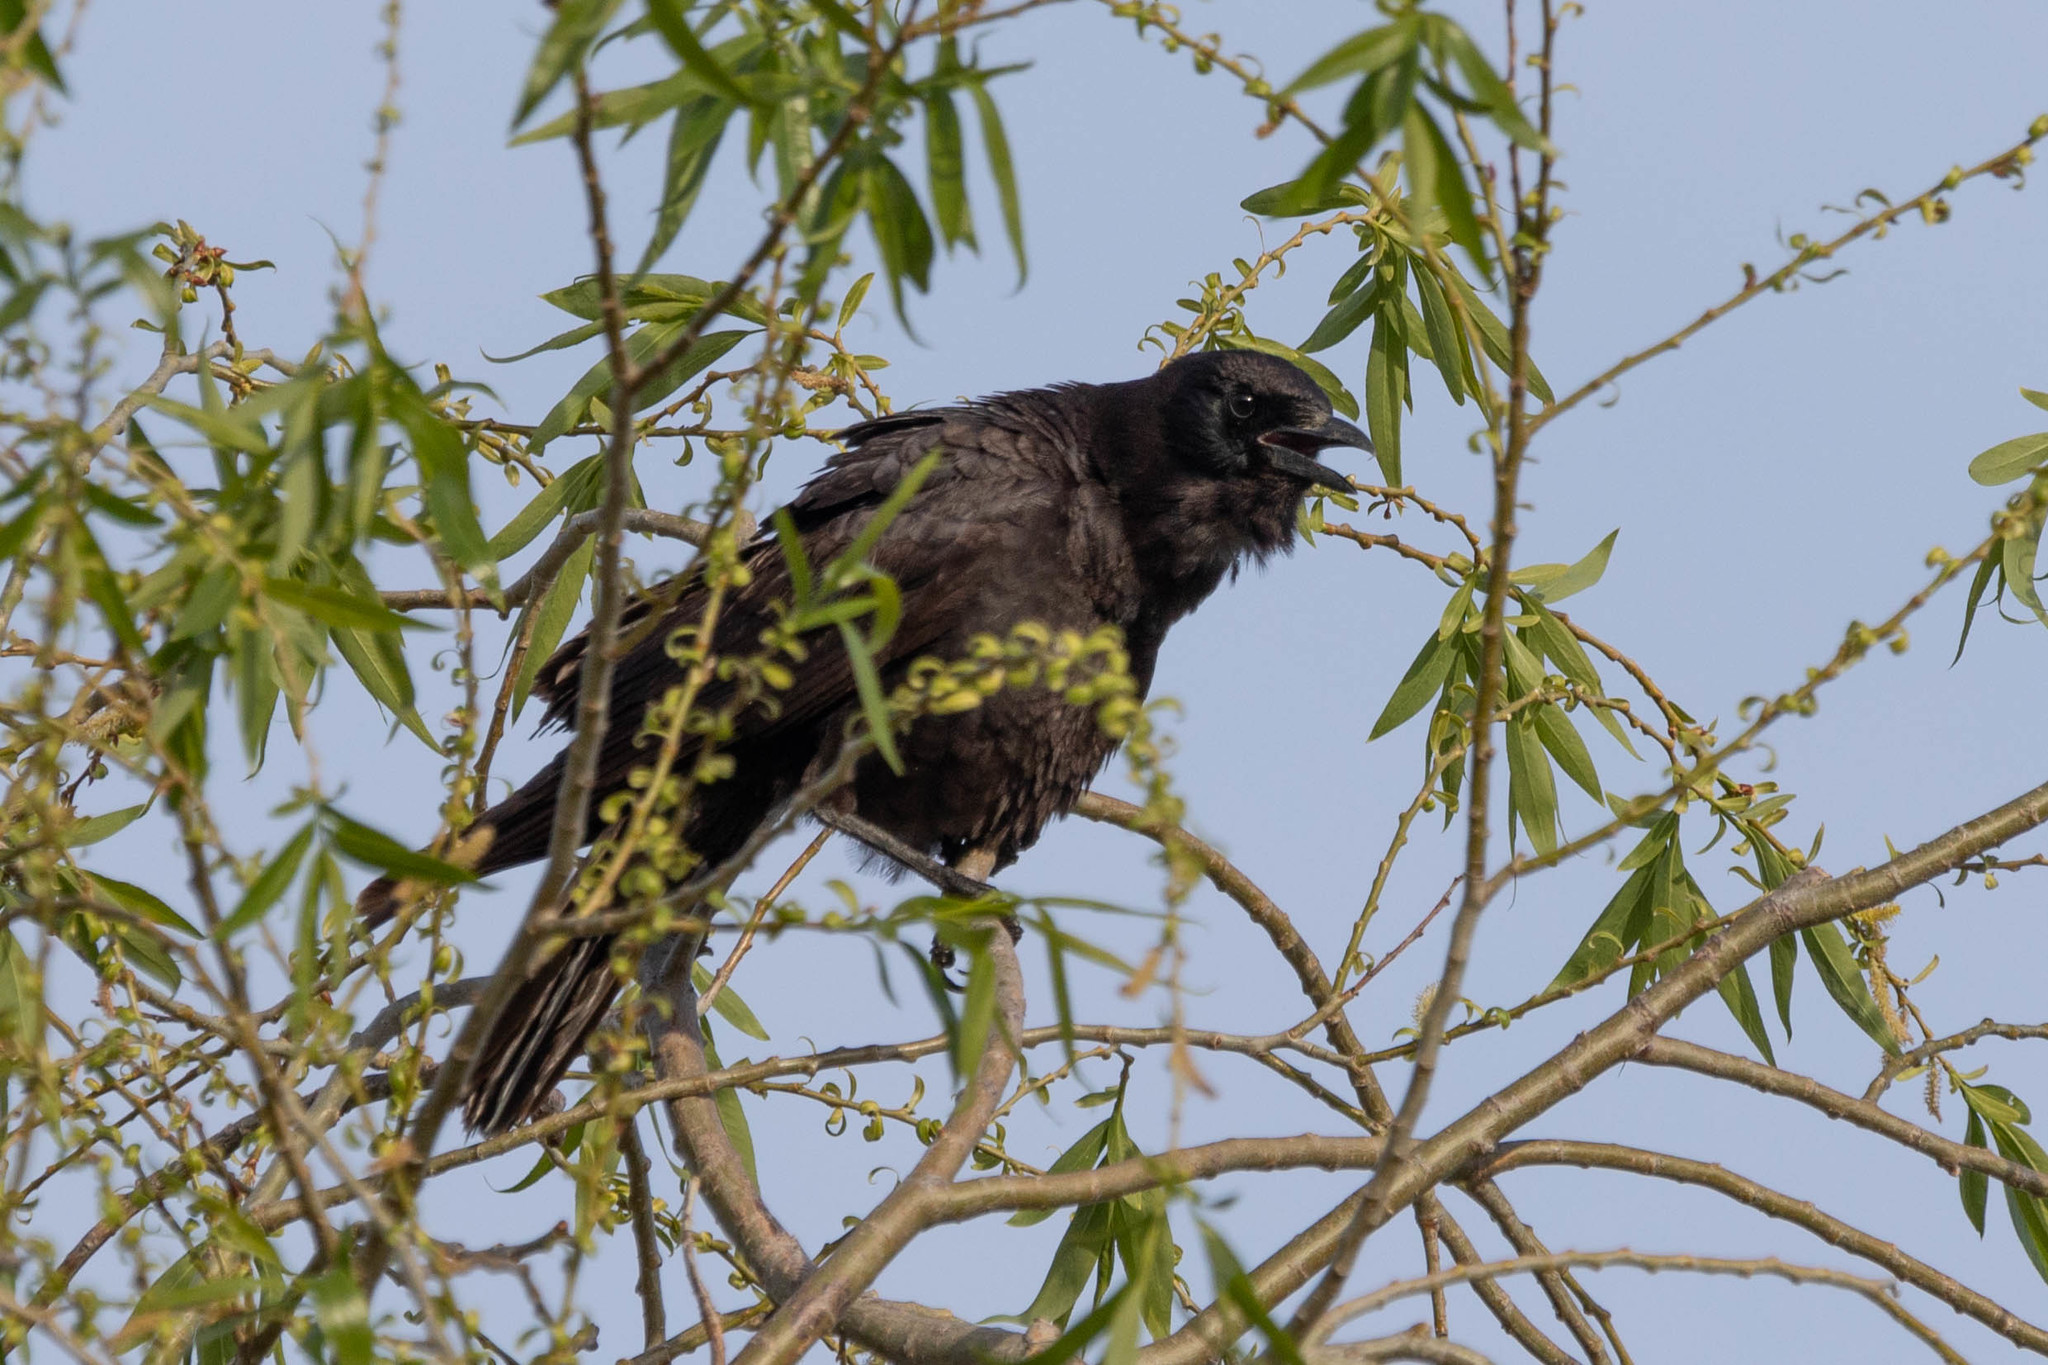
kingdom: Animalia
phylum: Chordata
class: Aves
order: Passeriformes
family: Corvidae
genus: Corvus
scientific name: Corvus brachyrhynchos
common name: American crow
